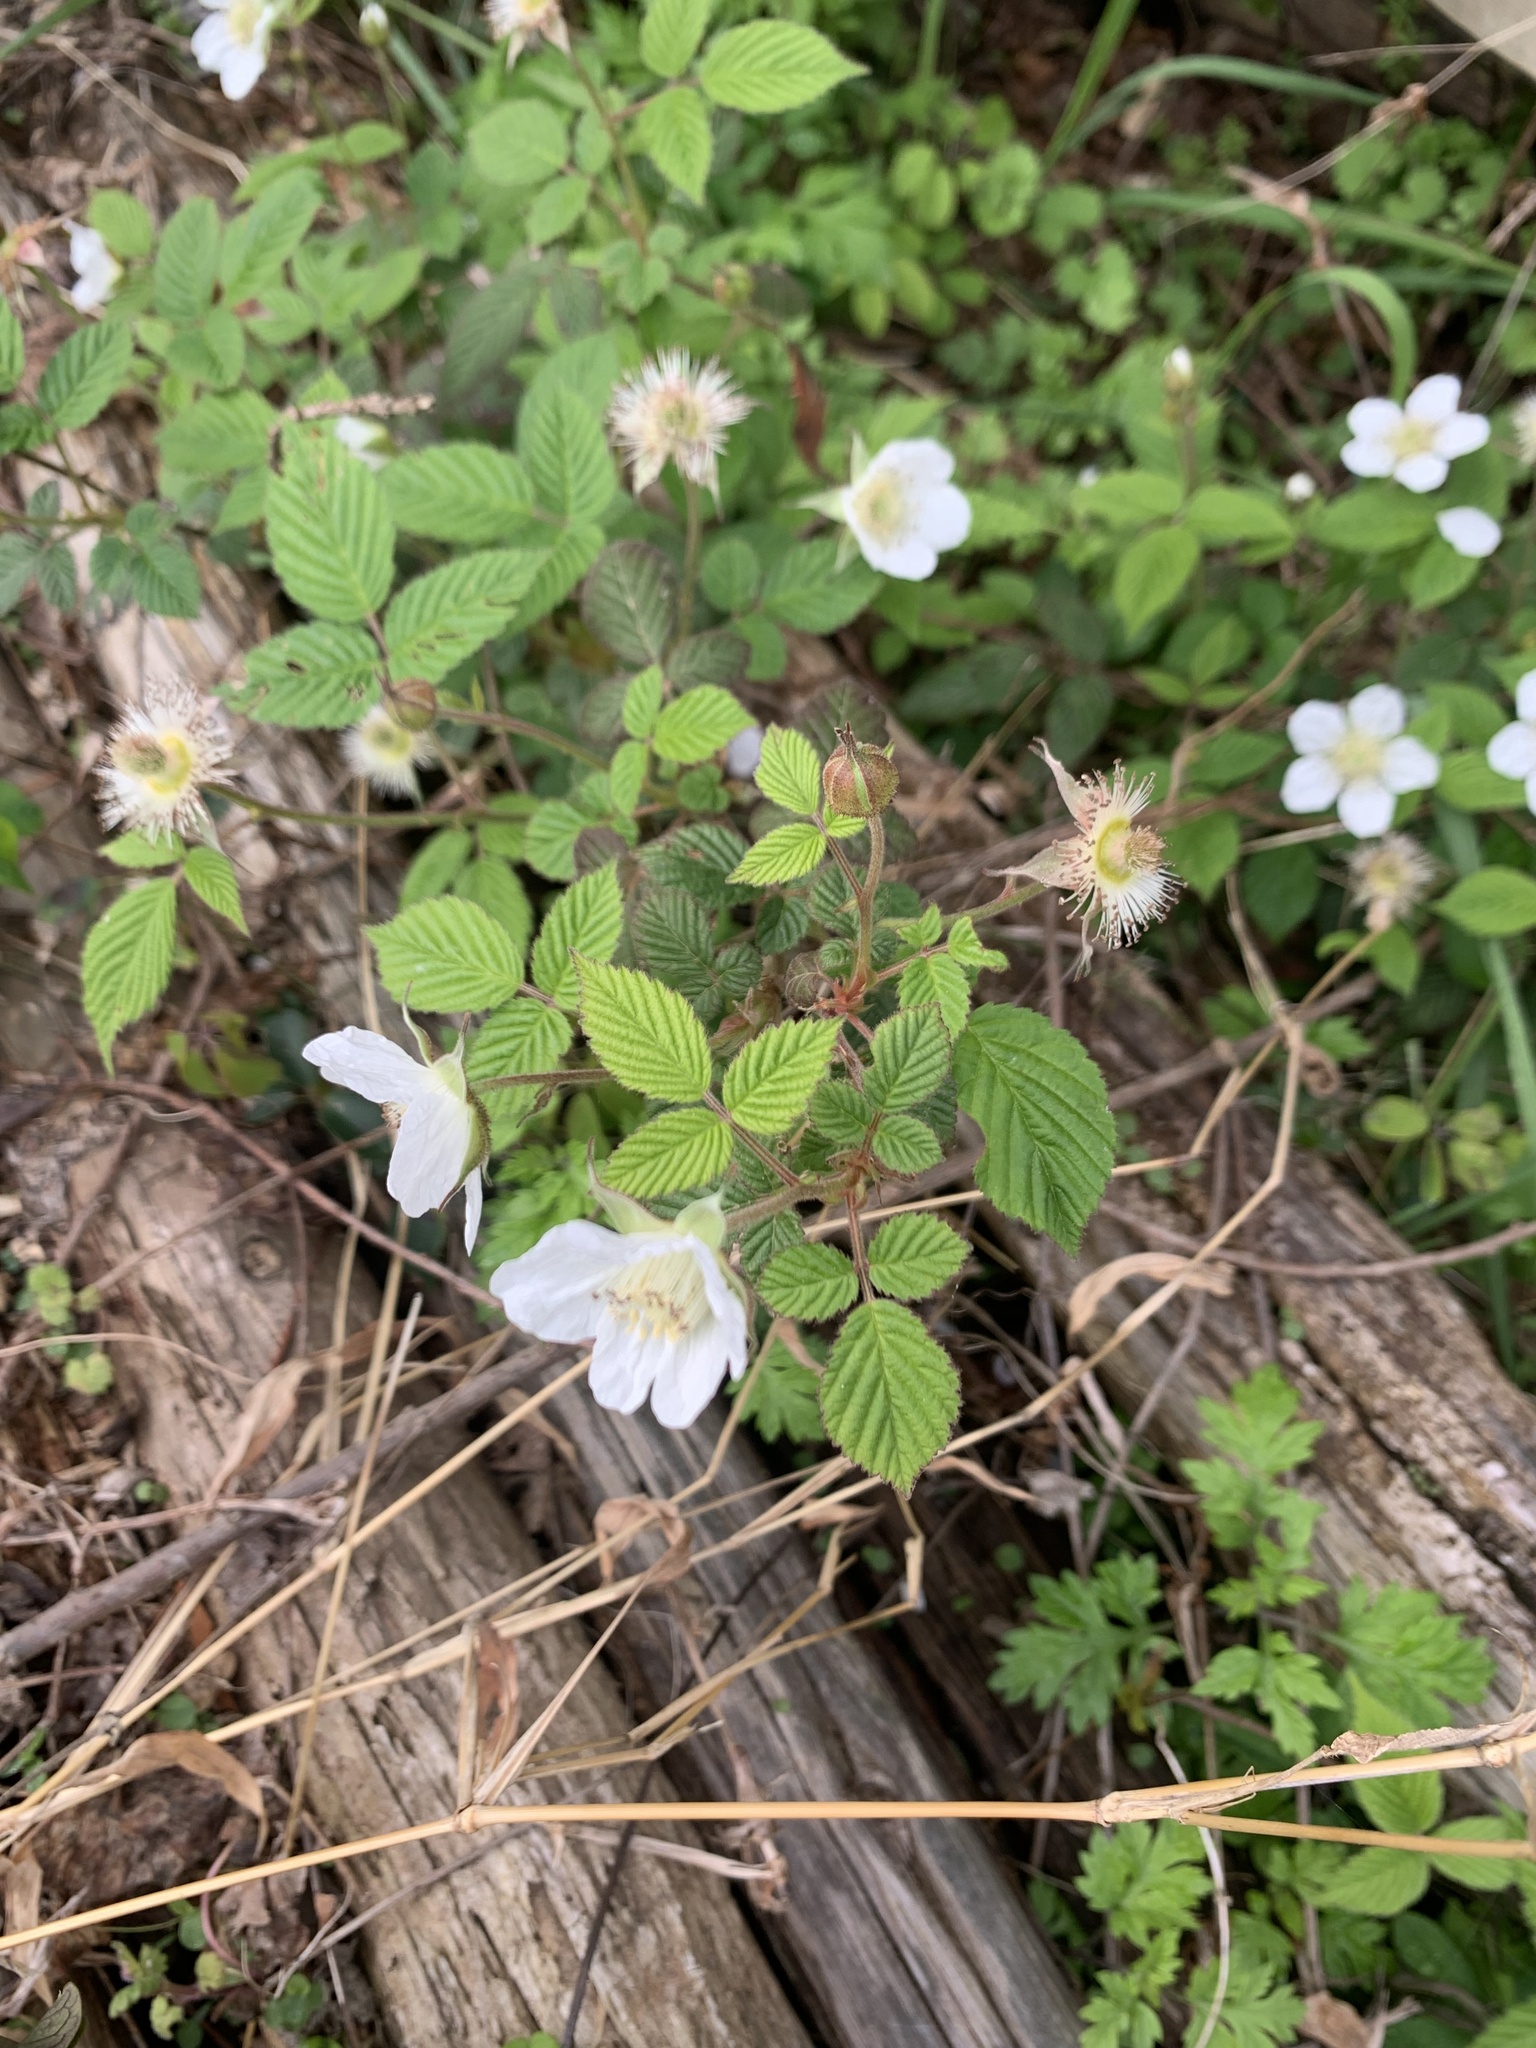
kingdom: Plantae
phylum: Tracheophyta
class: Magnoliopsida
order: Rosales
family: Rosaceae
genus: Rubus
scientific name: Rubus hirsutus
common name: Hirsute raspberry
